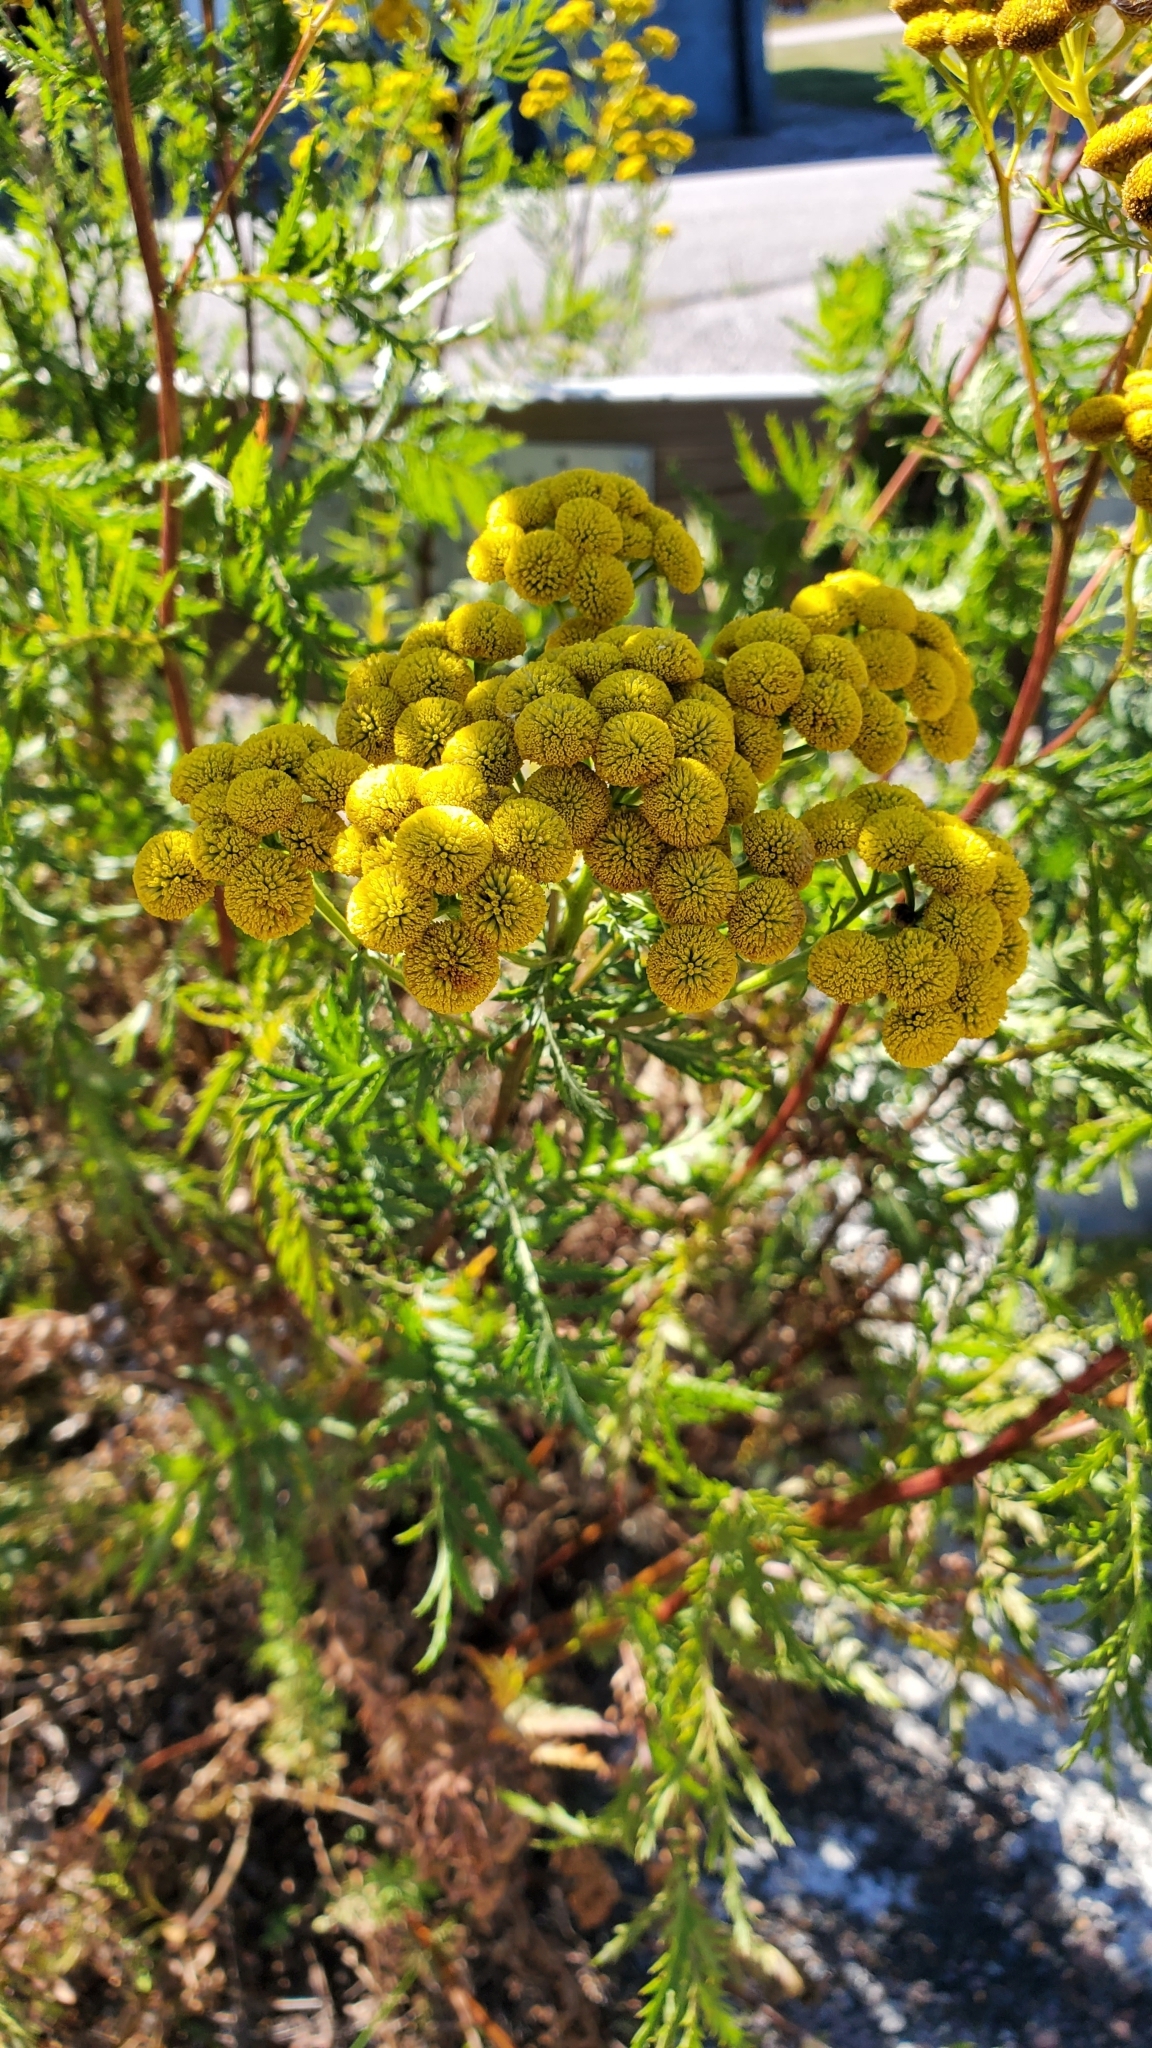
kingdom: Plantae
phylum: Tracheophyta
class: Magnoliopsida
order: Asterales
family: Asteraceae
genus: Tanacetum
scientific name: Tanacetum vulgare
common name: Common tansy
